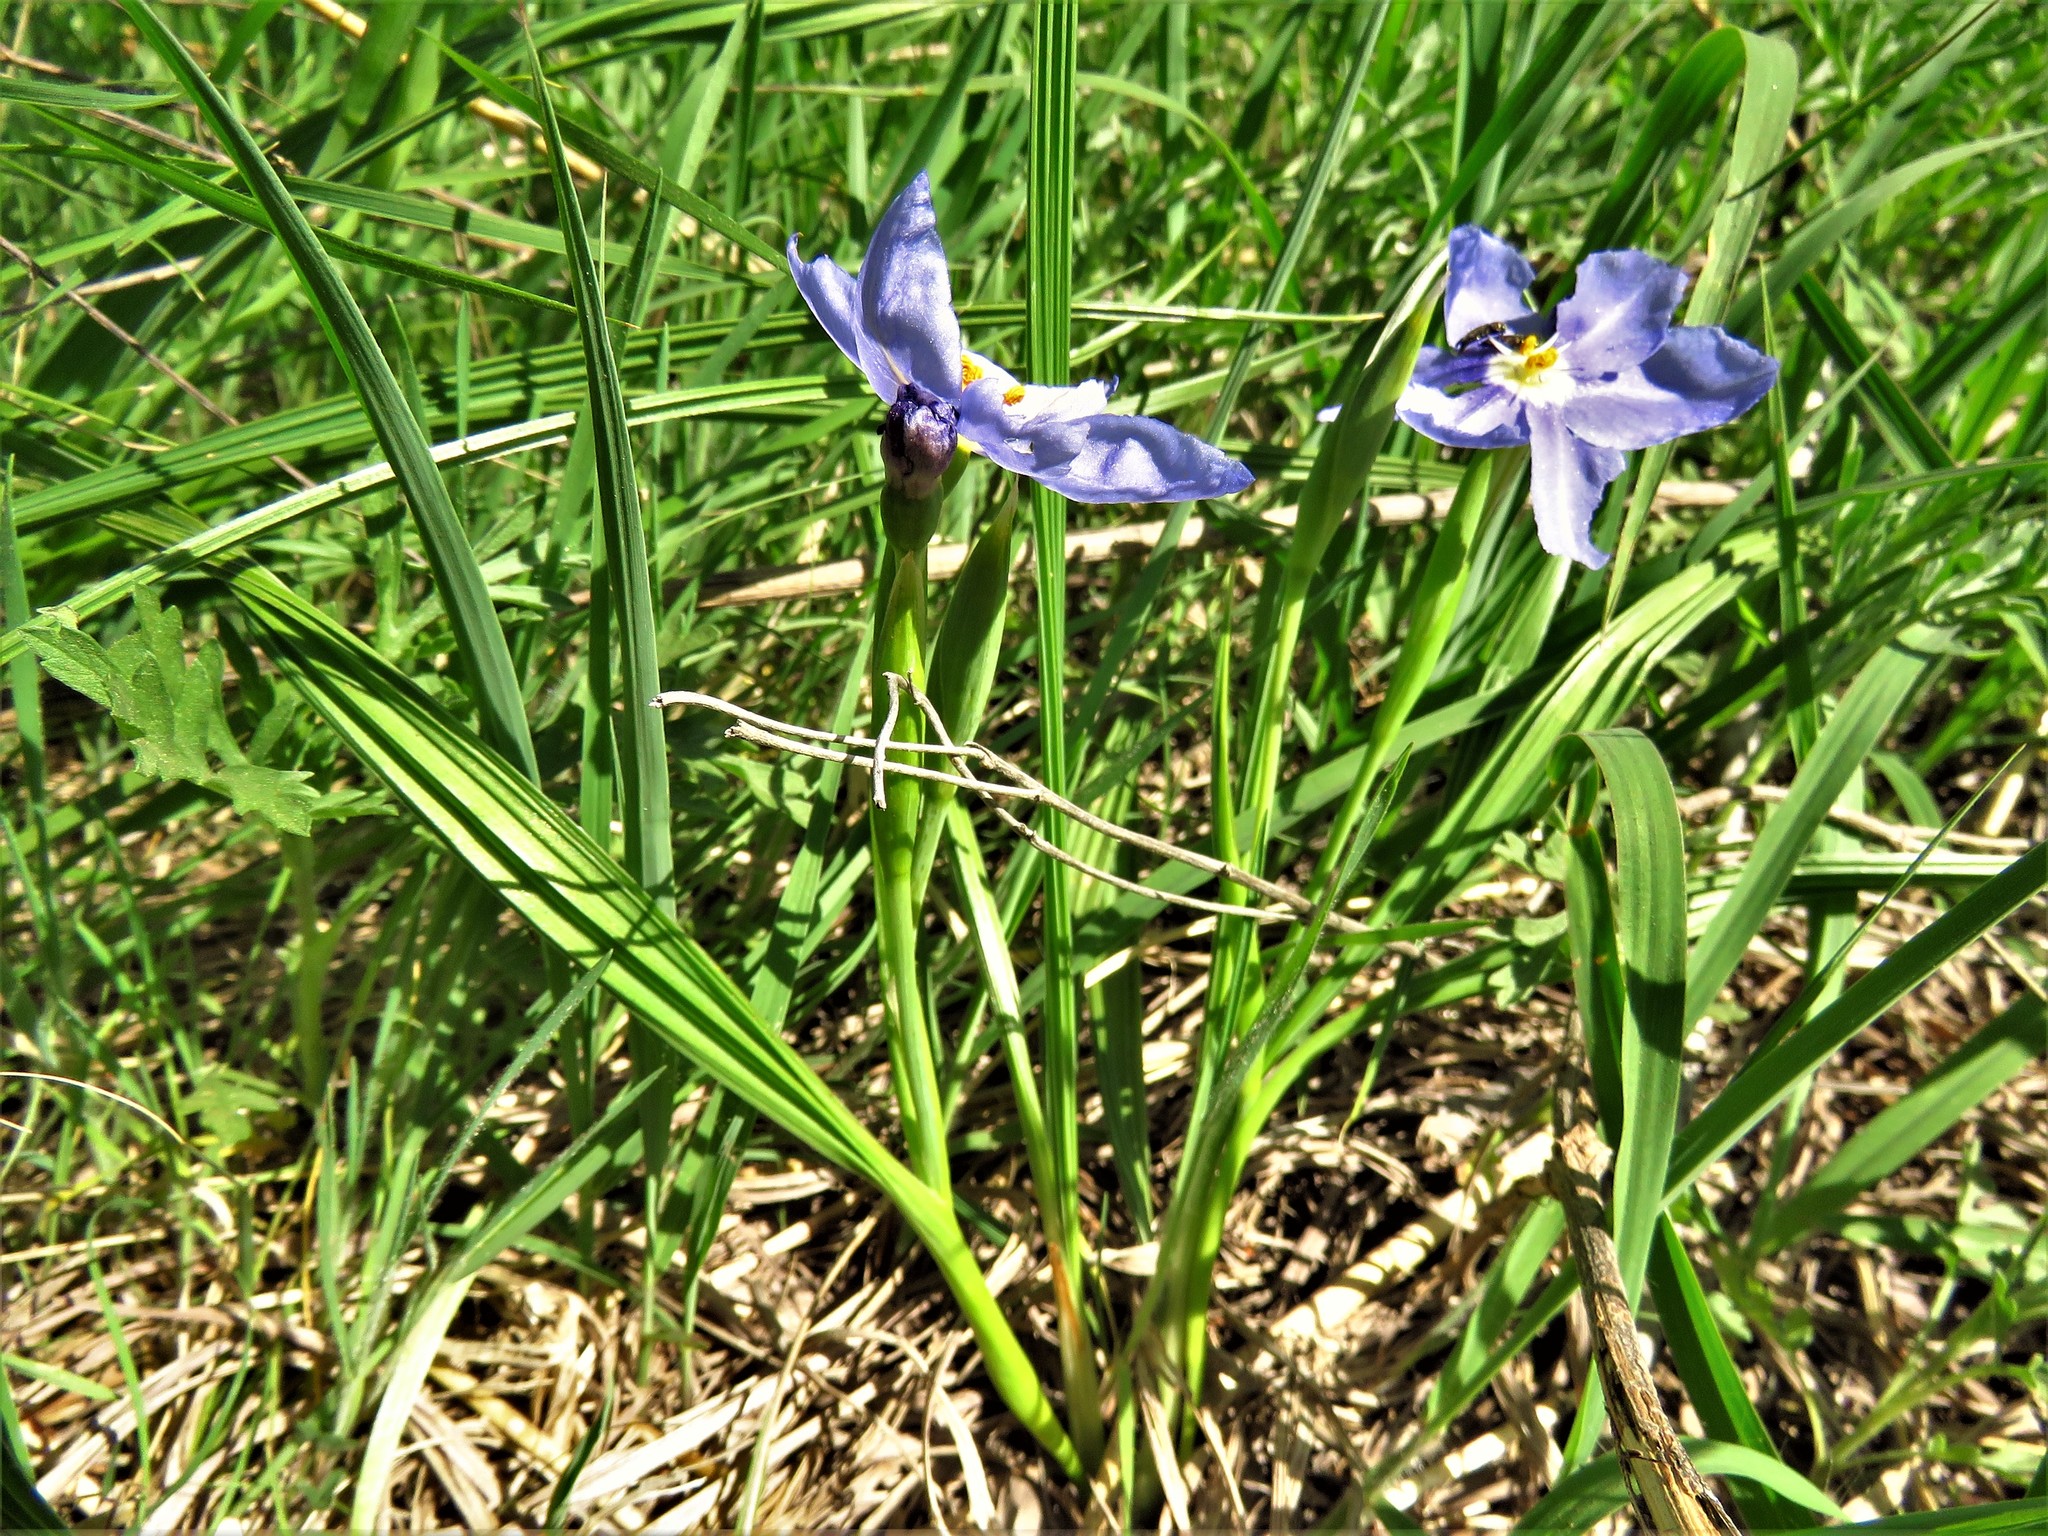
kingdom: Plantae
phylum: Tracheophyta
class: Liliopsida
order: Asparagales
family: Iridaceae
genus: Nemastylis
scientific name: Nemastylis geminiflora
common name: Prairie celestial
